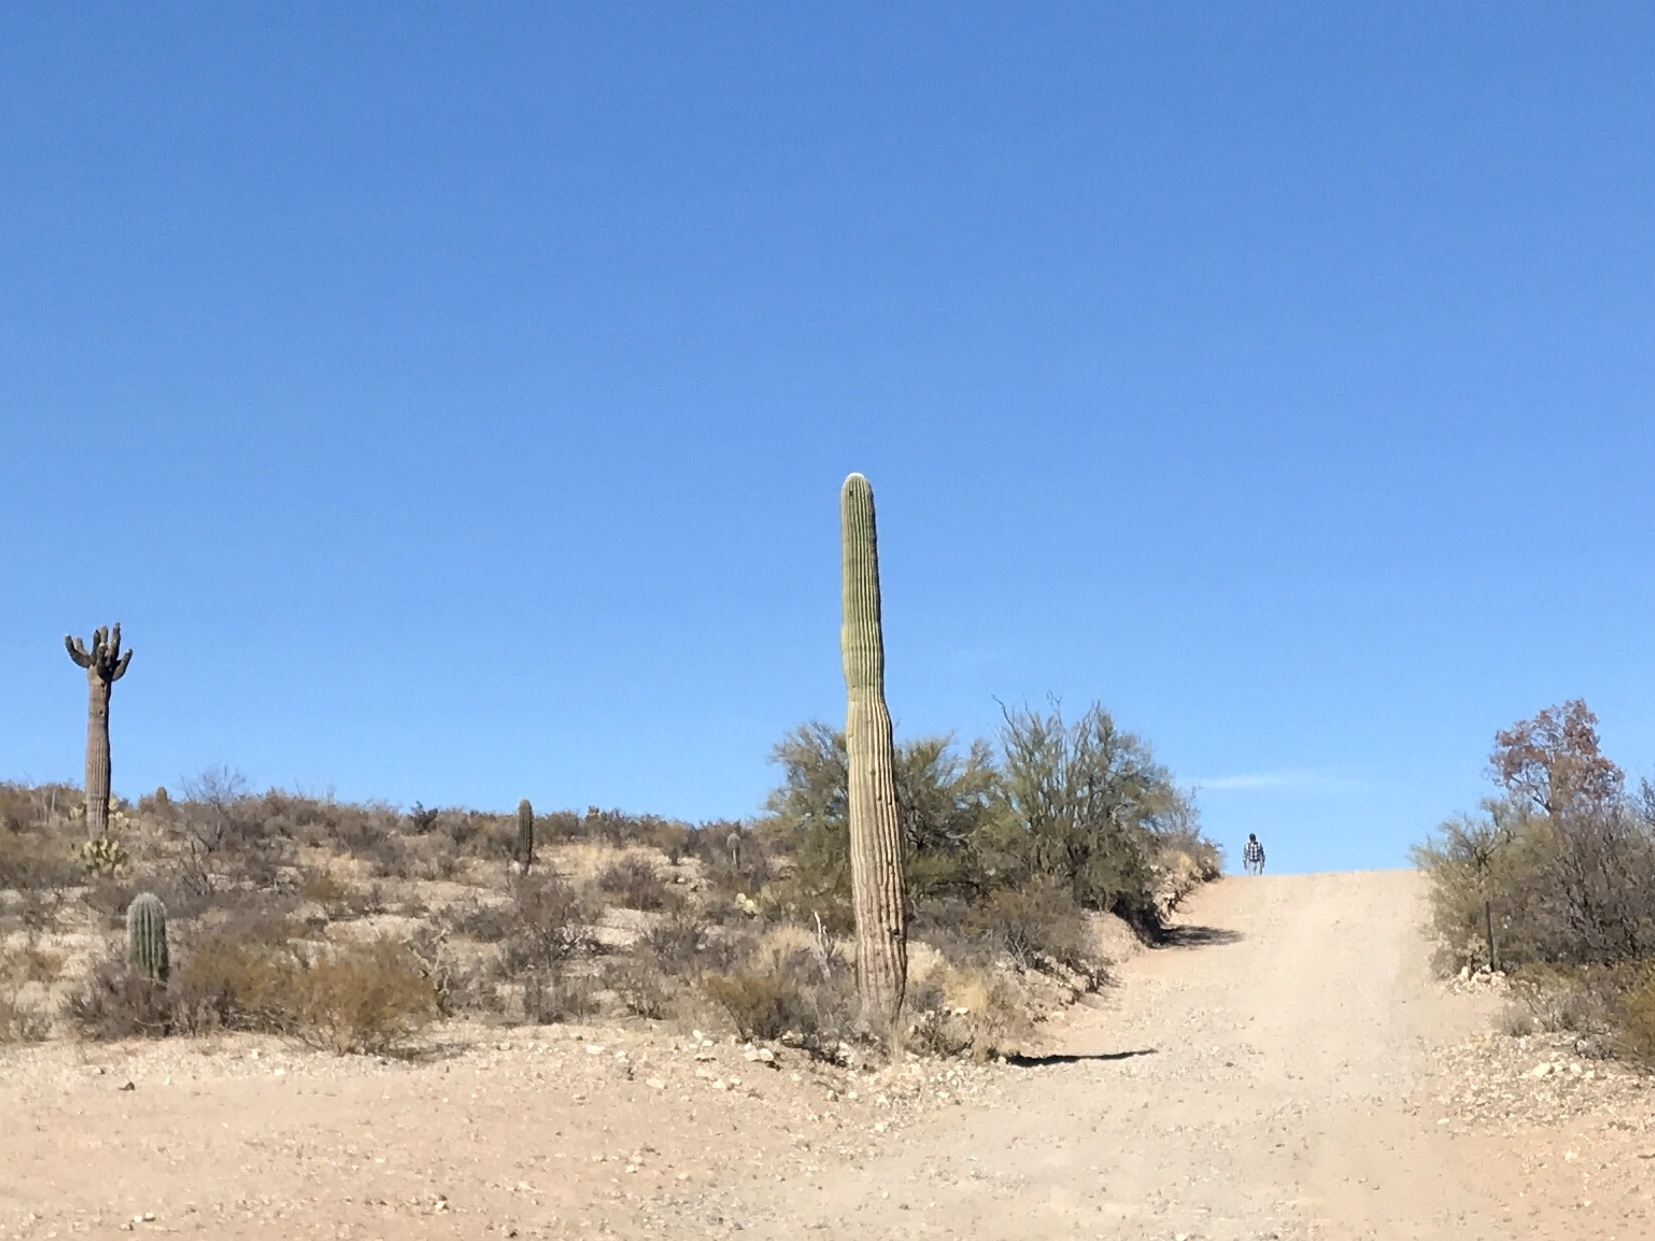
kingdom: Plantae
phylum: Tracheophyta
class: Magnoliopsida
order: Caryophyllales
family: Cactaceae
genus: Carnegiea
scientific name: Carnegiea gigantea
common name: Saguaro
